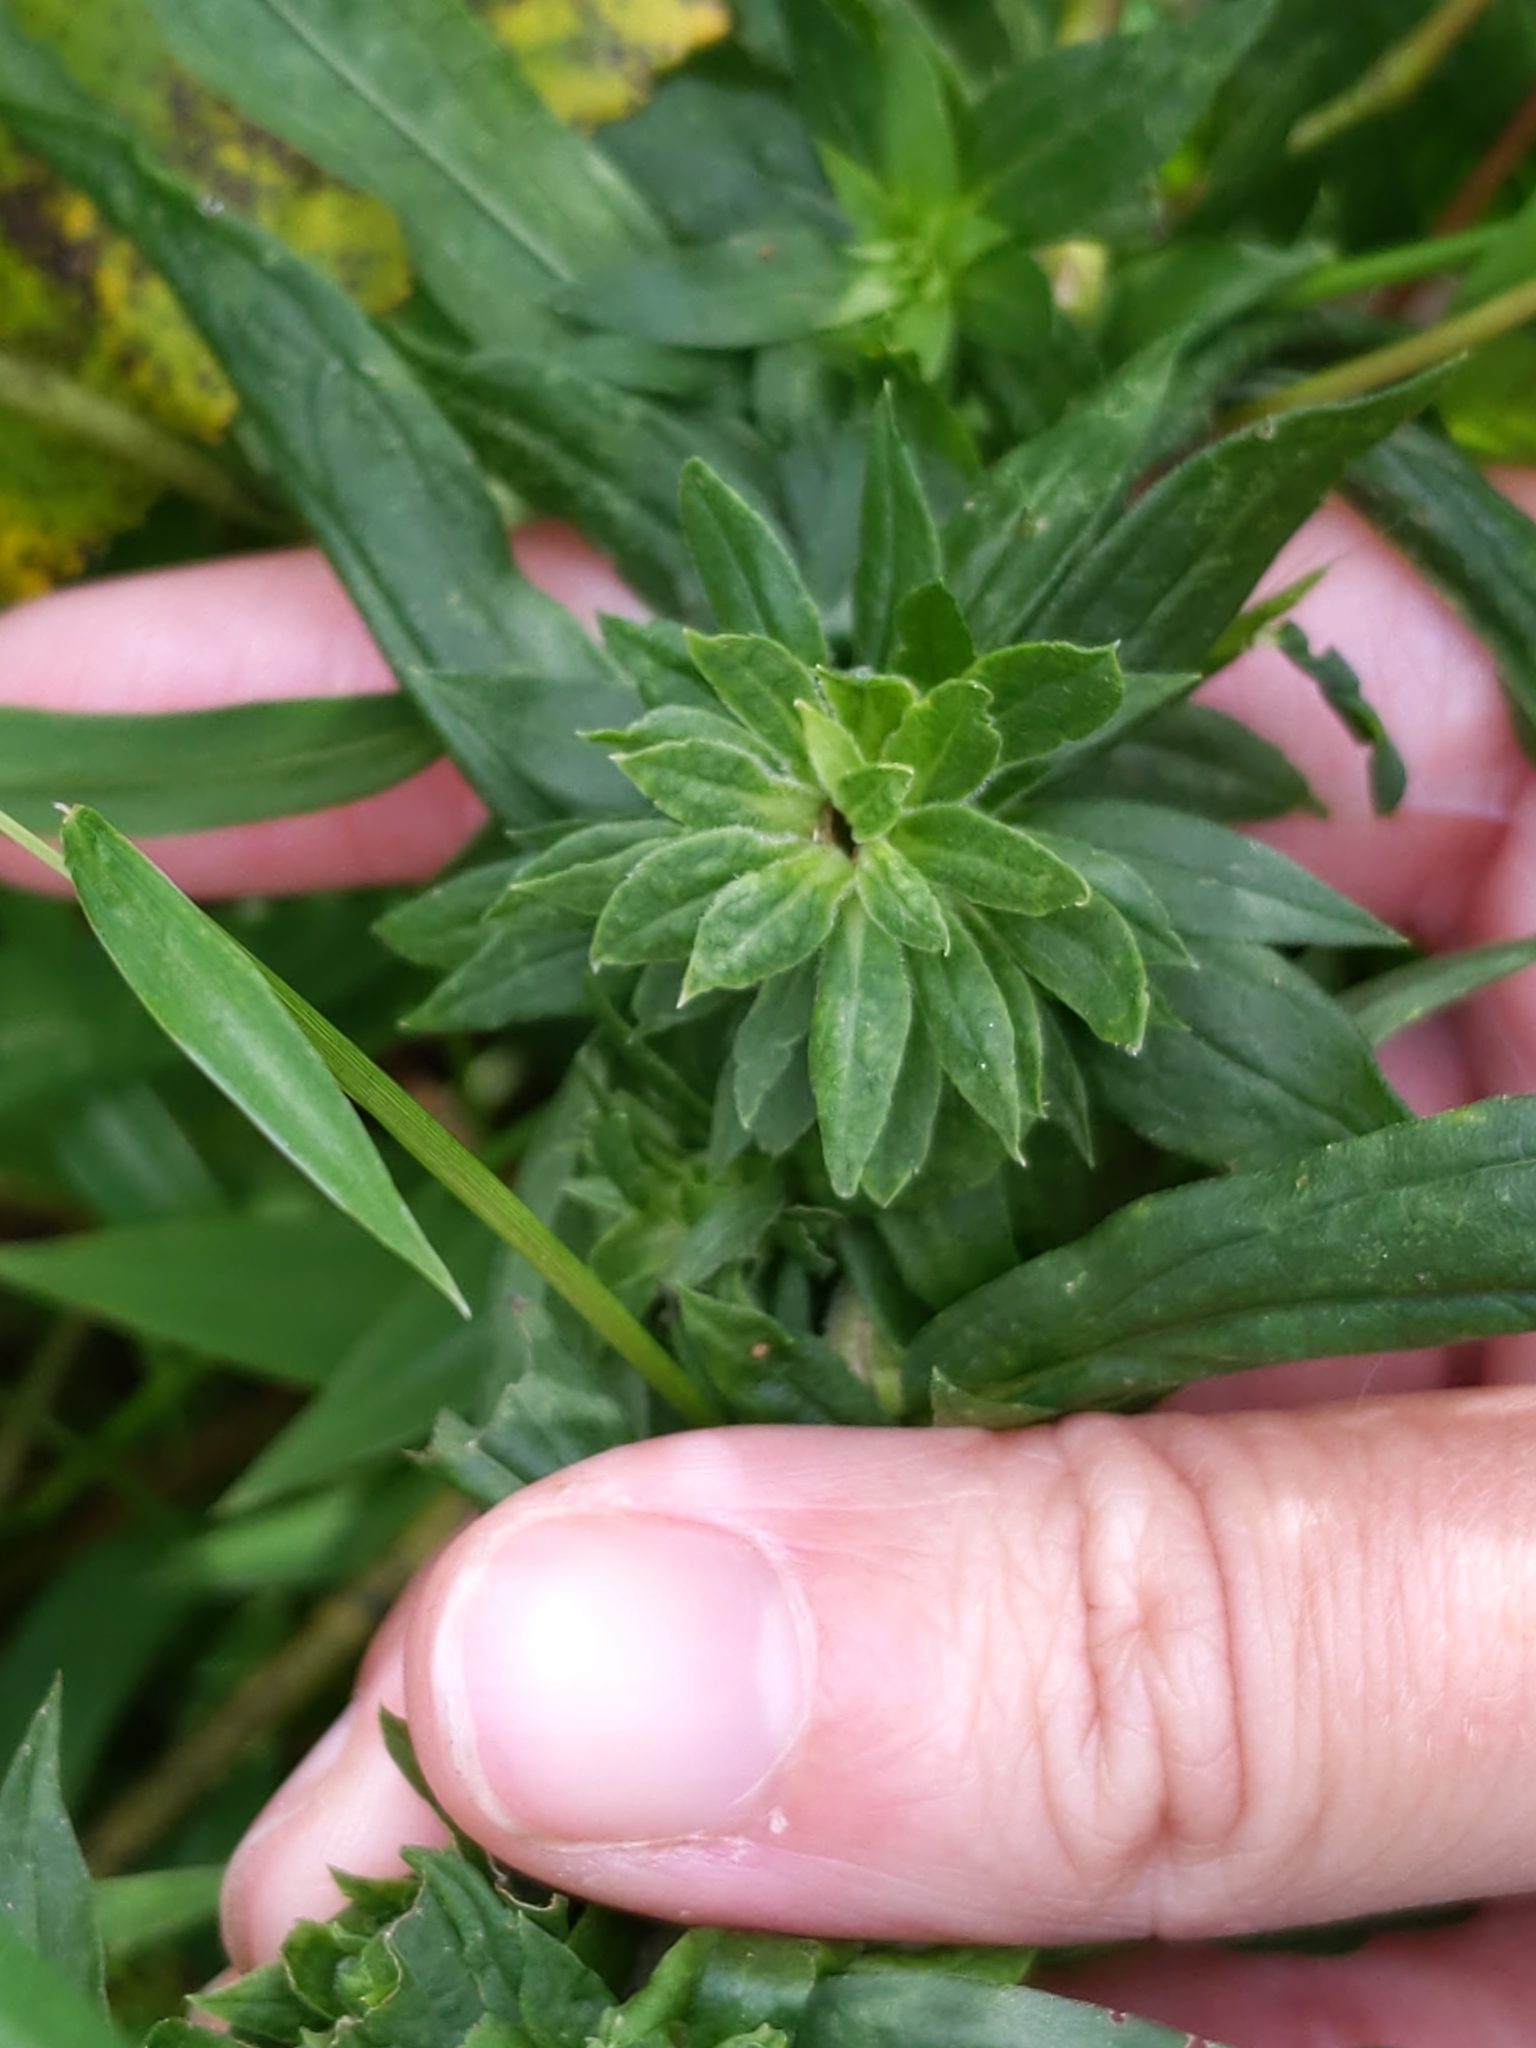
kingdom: Animalia
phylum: Arthropoda
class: Insecta
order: Diptera
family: Tephritidae
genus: Procecidochares
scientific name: Procecidochares atra
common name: Goldenrod brussels sprout gall fly
